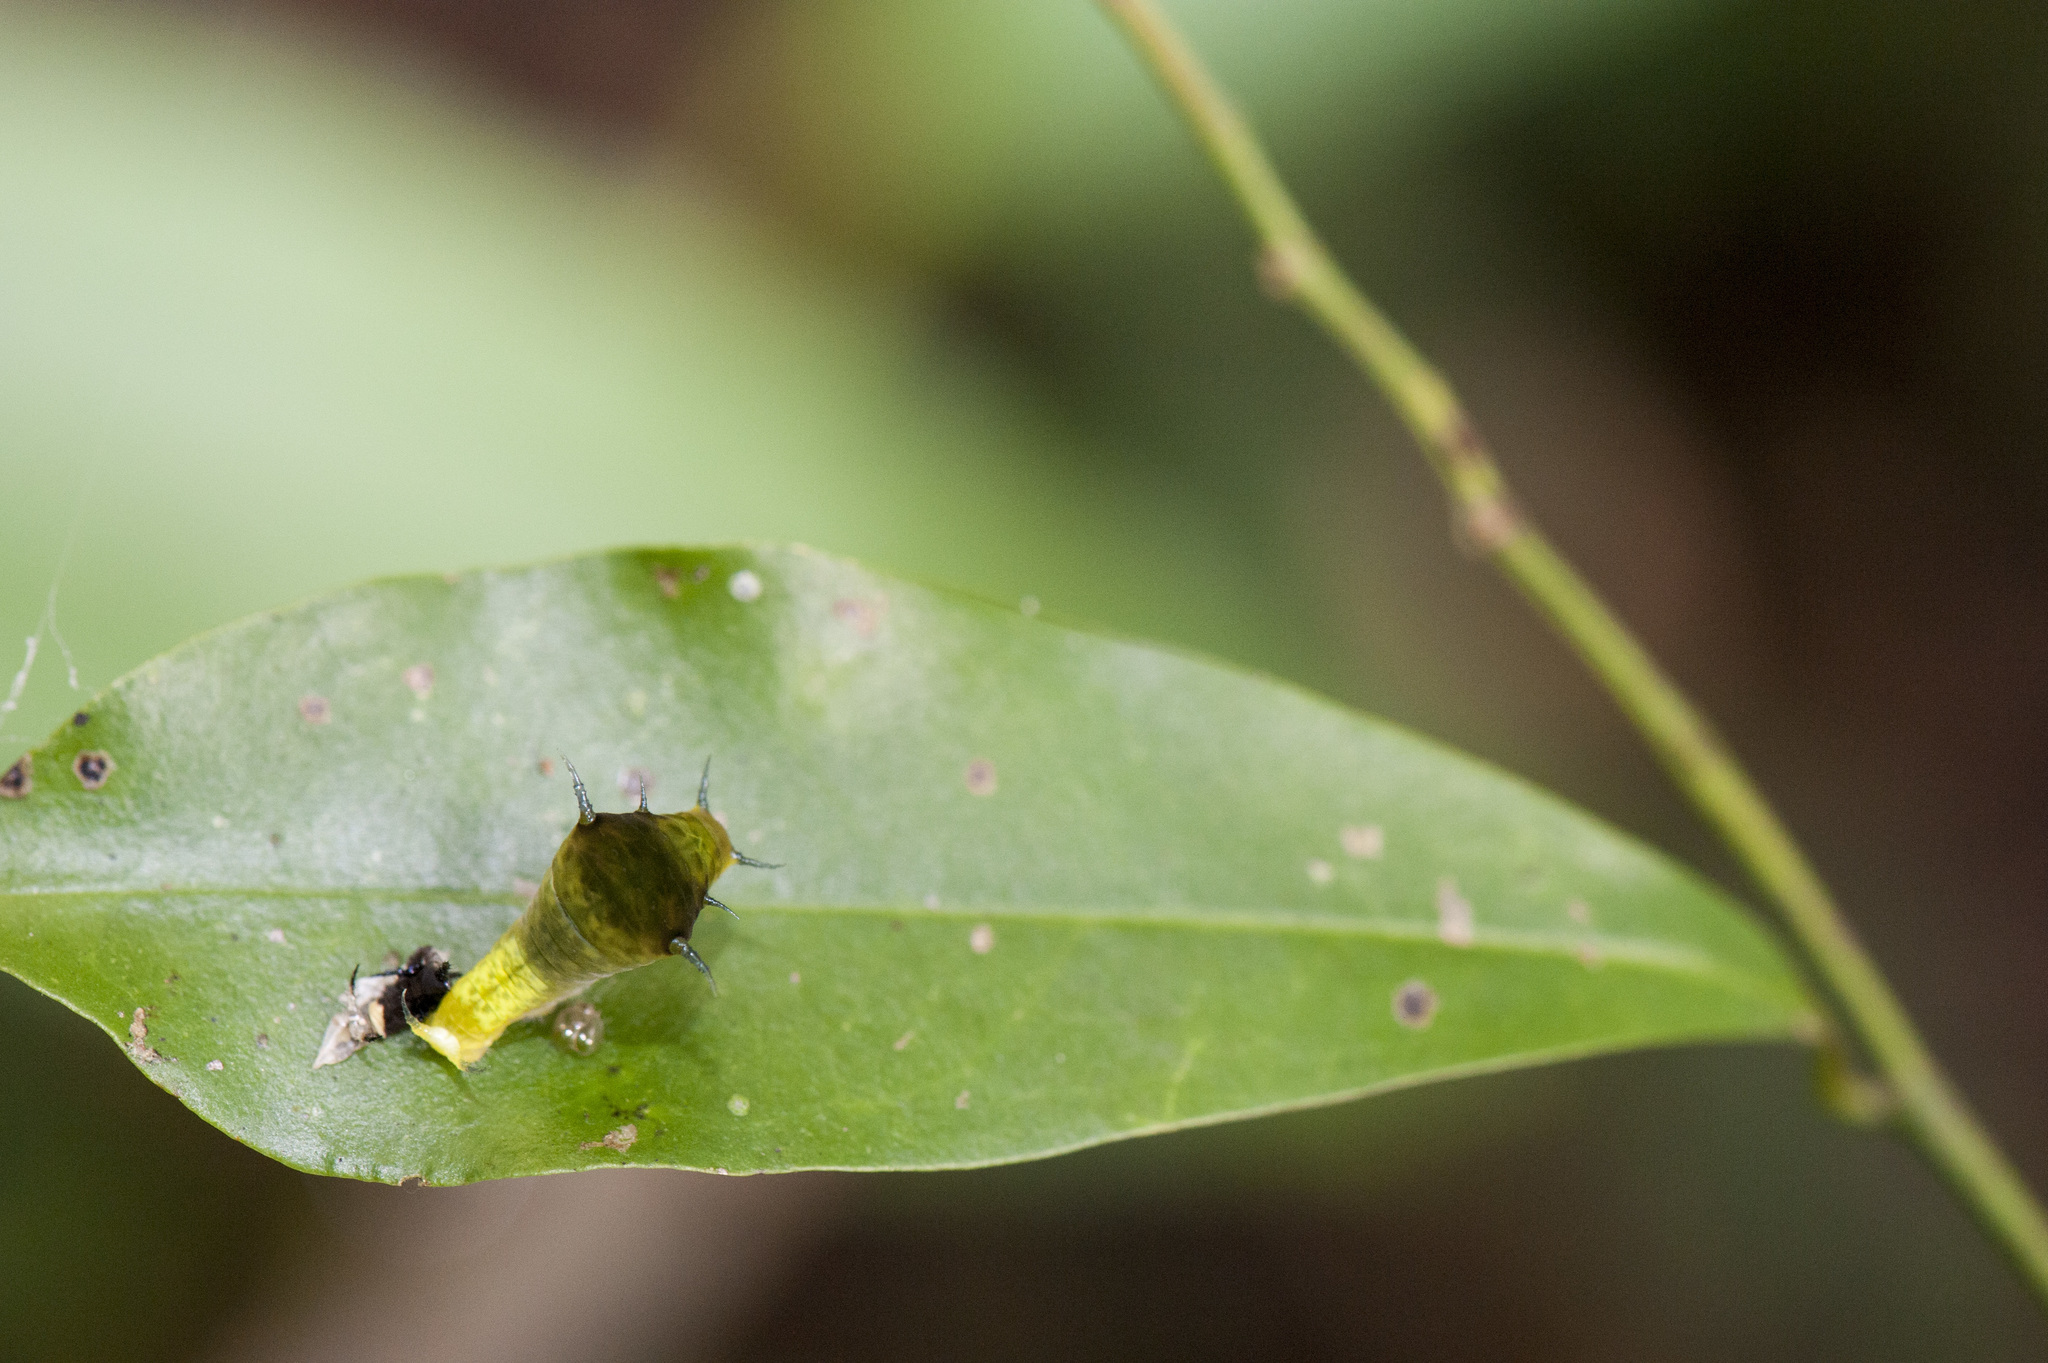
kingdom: Animalia
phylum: Arthropoda
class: Insecta
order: Lepidoptera
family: Papilionidae
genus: Graphium
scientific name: Graphium agamemnon
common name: Tailed jay
